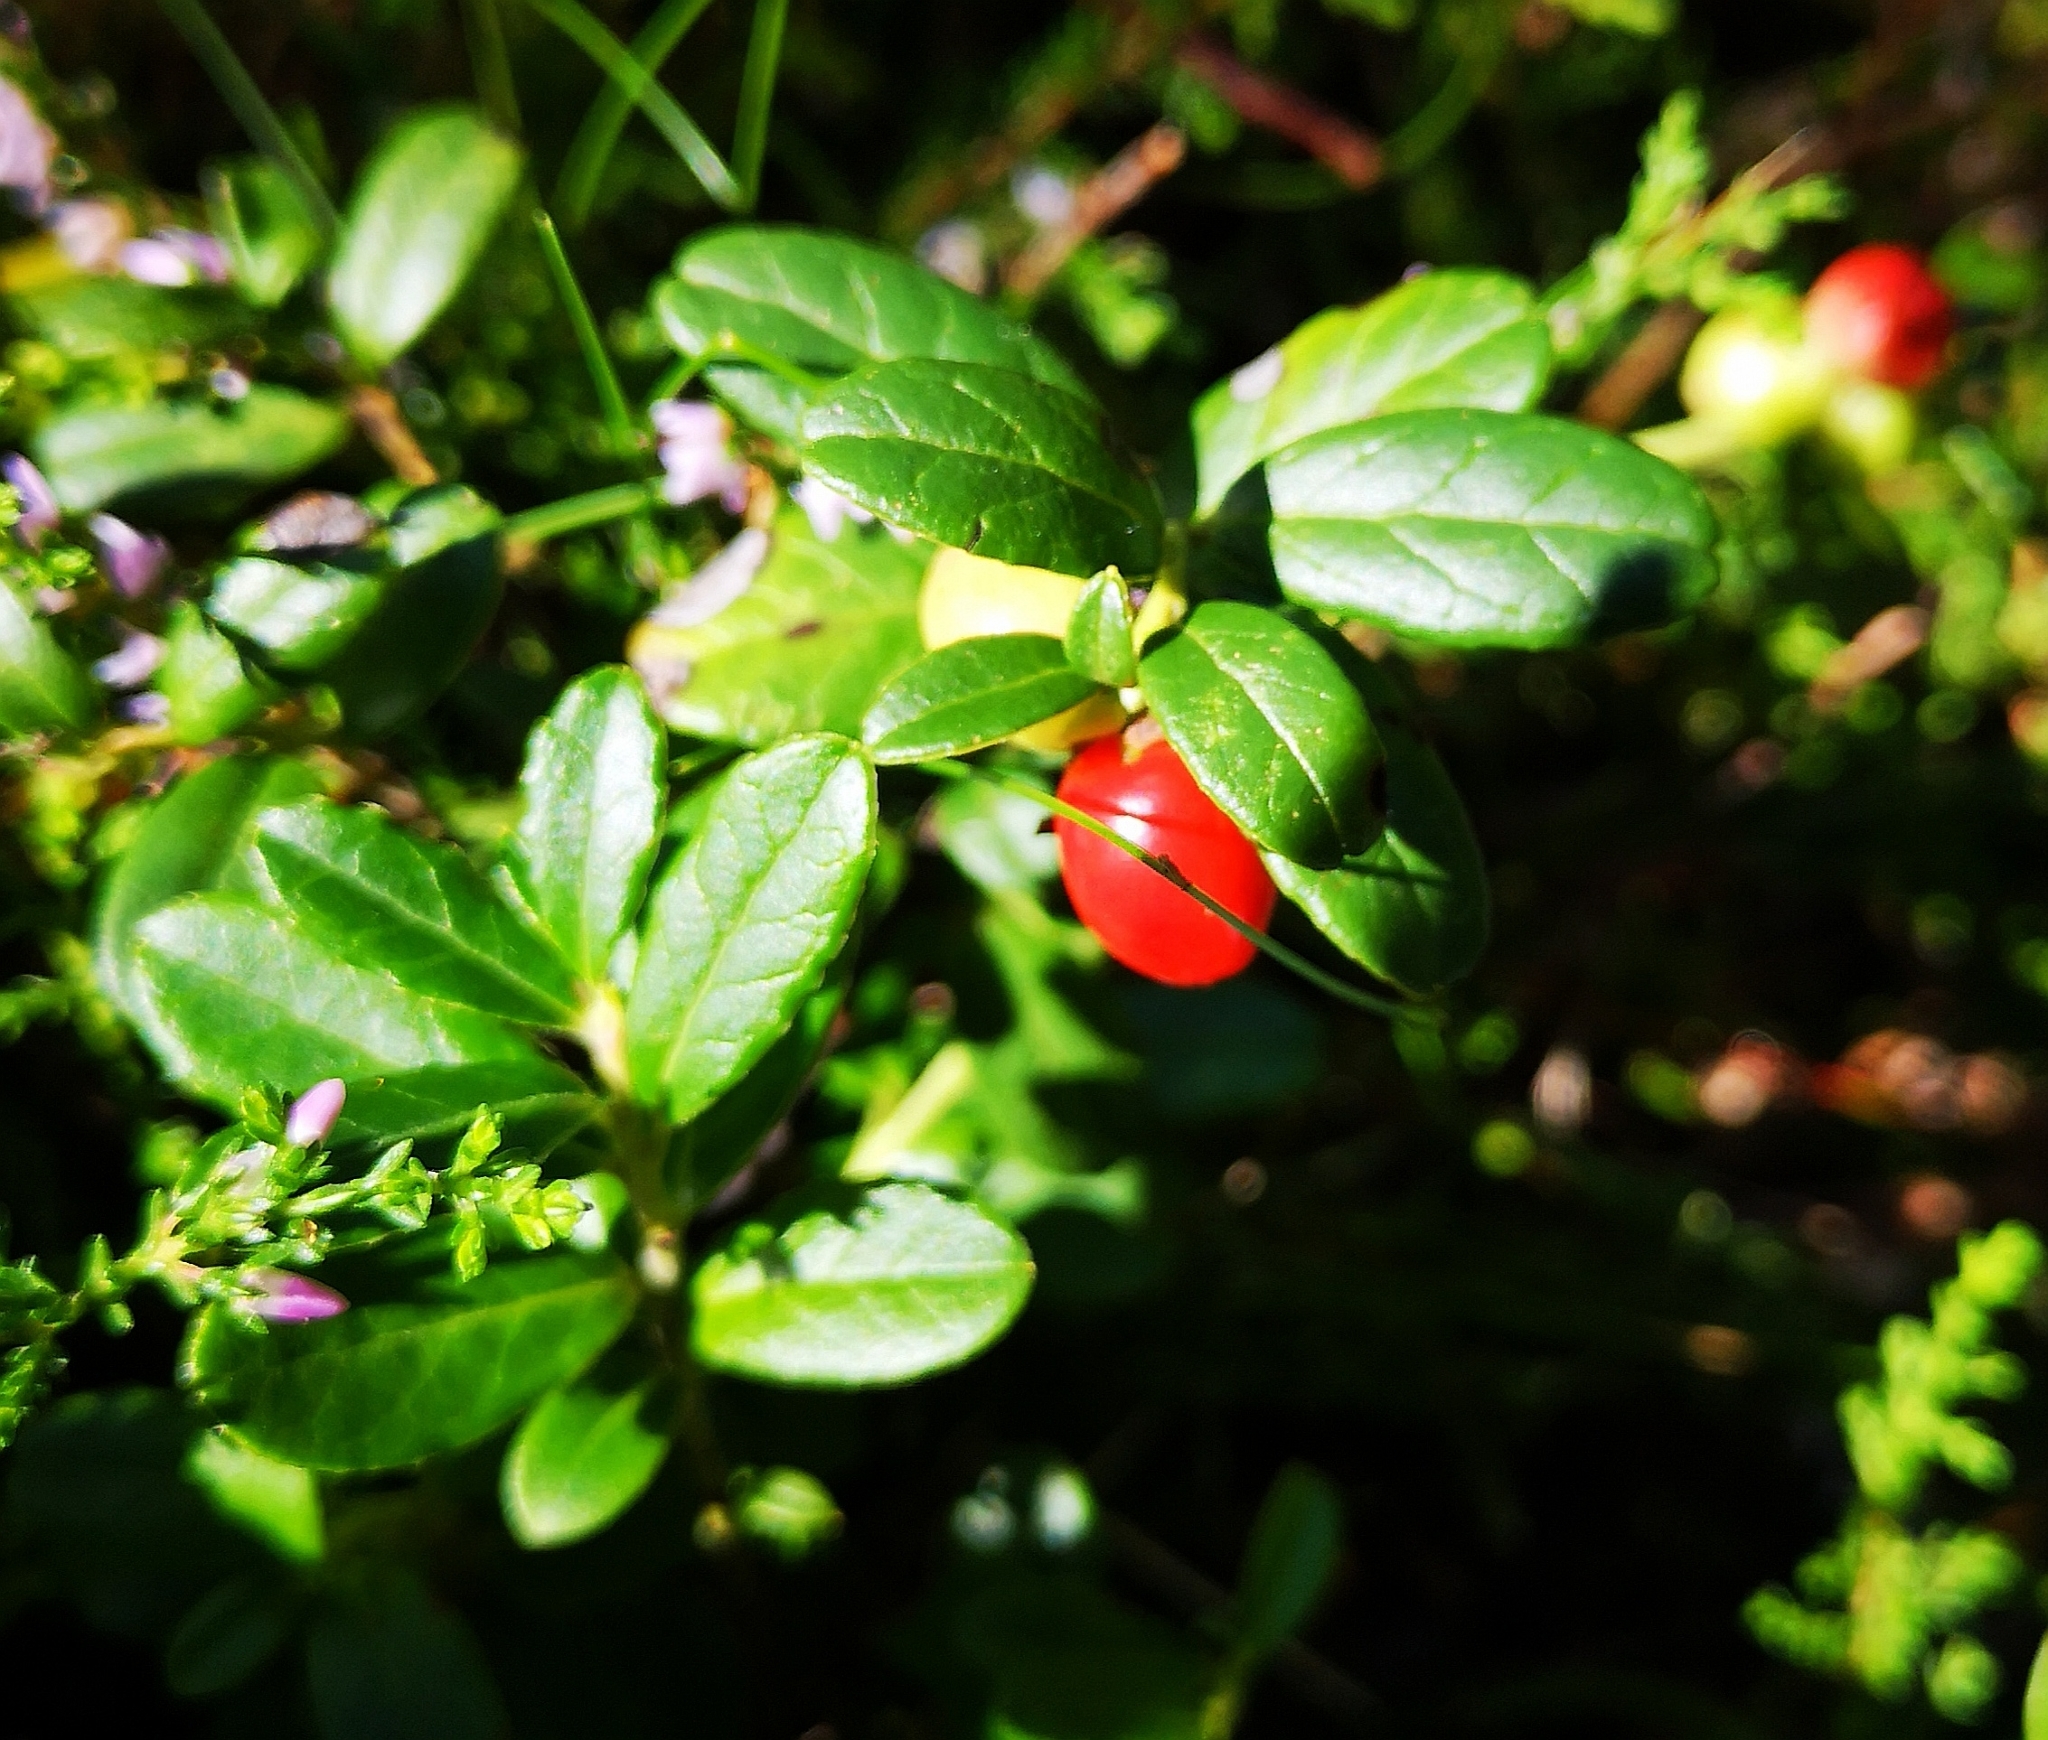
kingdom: Plantae
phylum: Tracheophyta
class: Magnoliopsida
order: Ericales
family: Ericaceae
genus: Vaccinium
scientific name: Vaccinium vitis-idaea
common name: Cowberry
